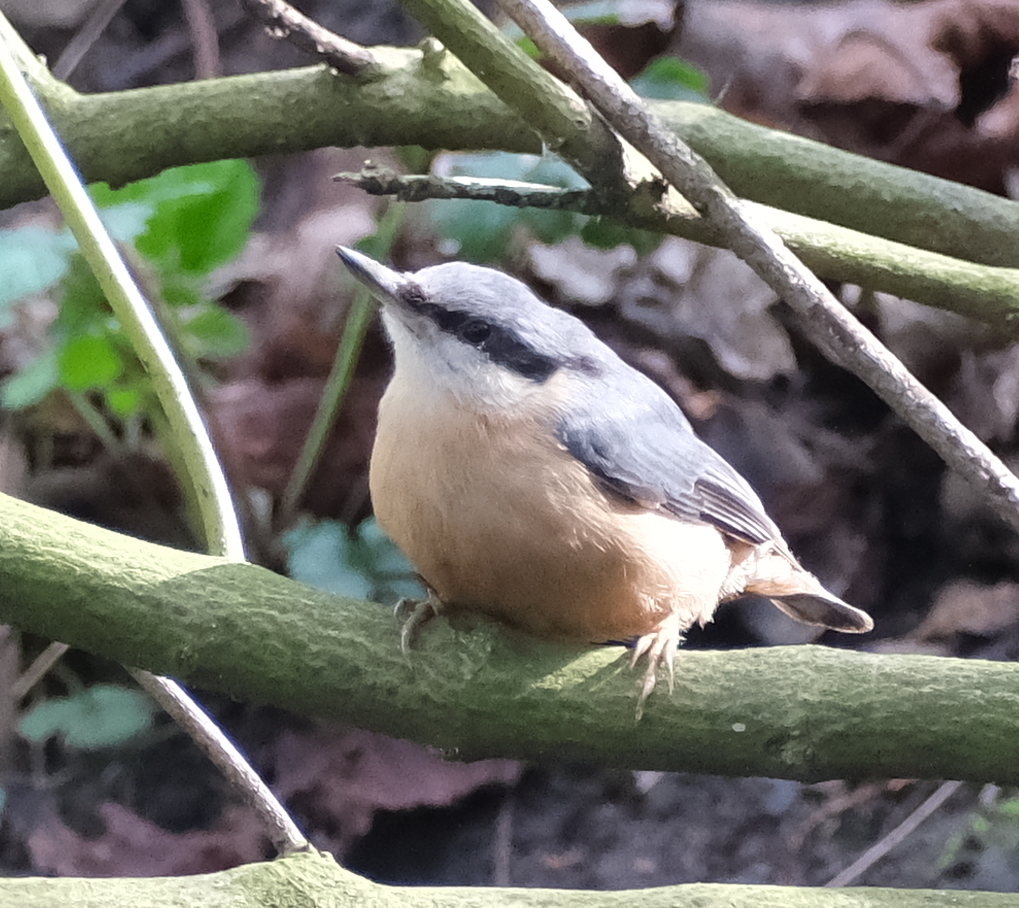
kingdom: Animalia
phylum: Chordata
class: Aves
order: Passeriformes
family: Sittidae
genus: Sitta
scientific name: Sitta europaea
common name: Eurasian nuthatch
